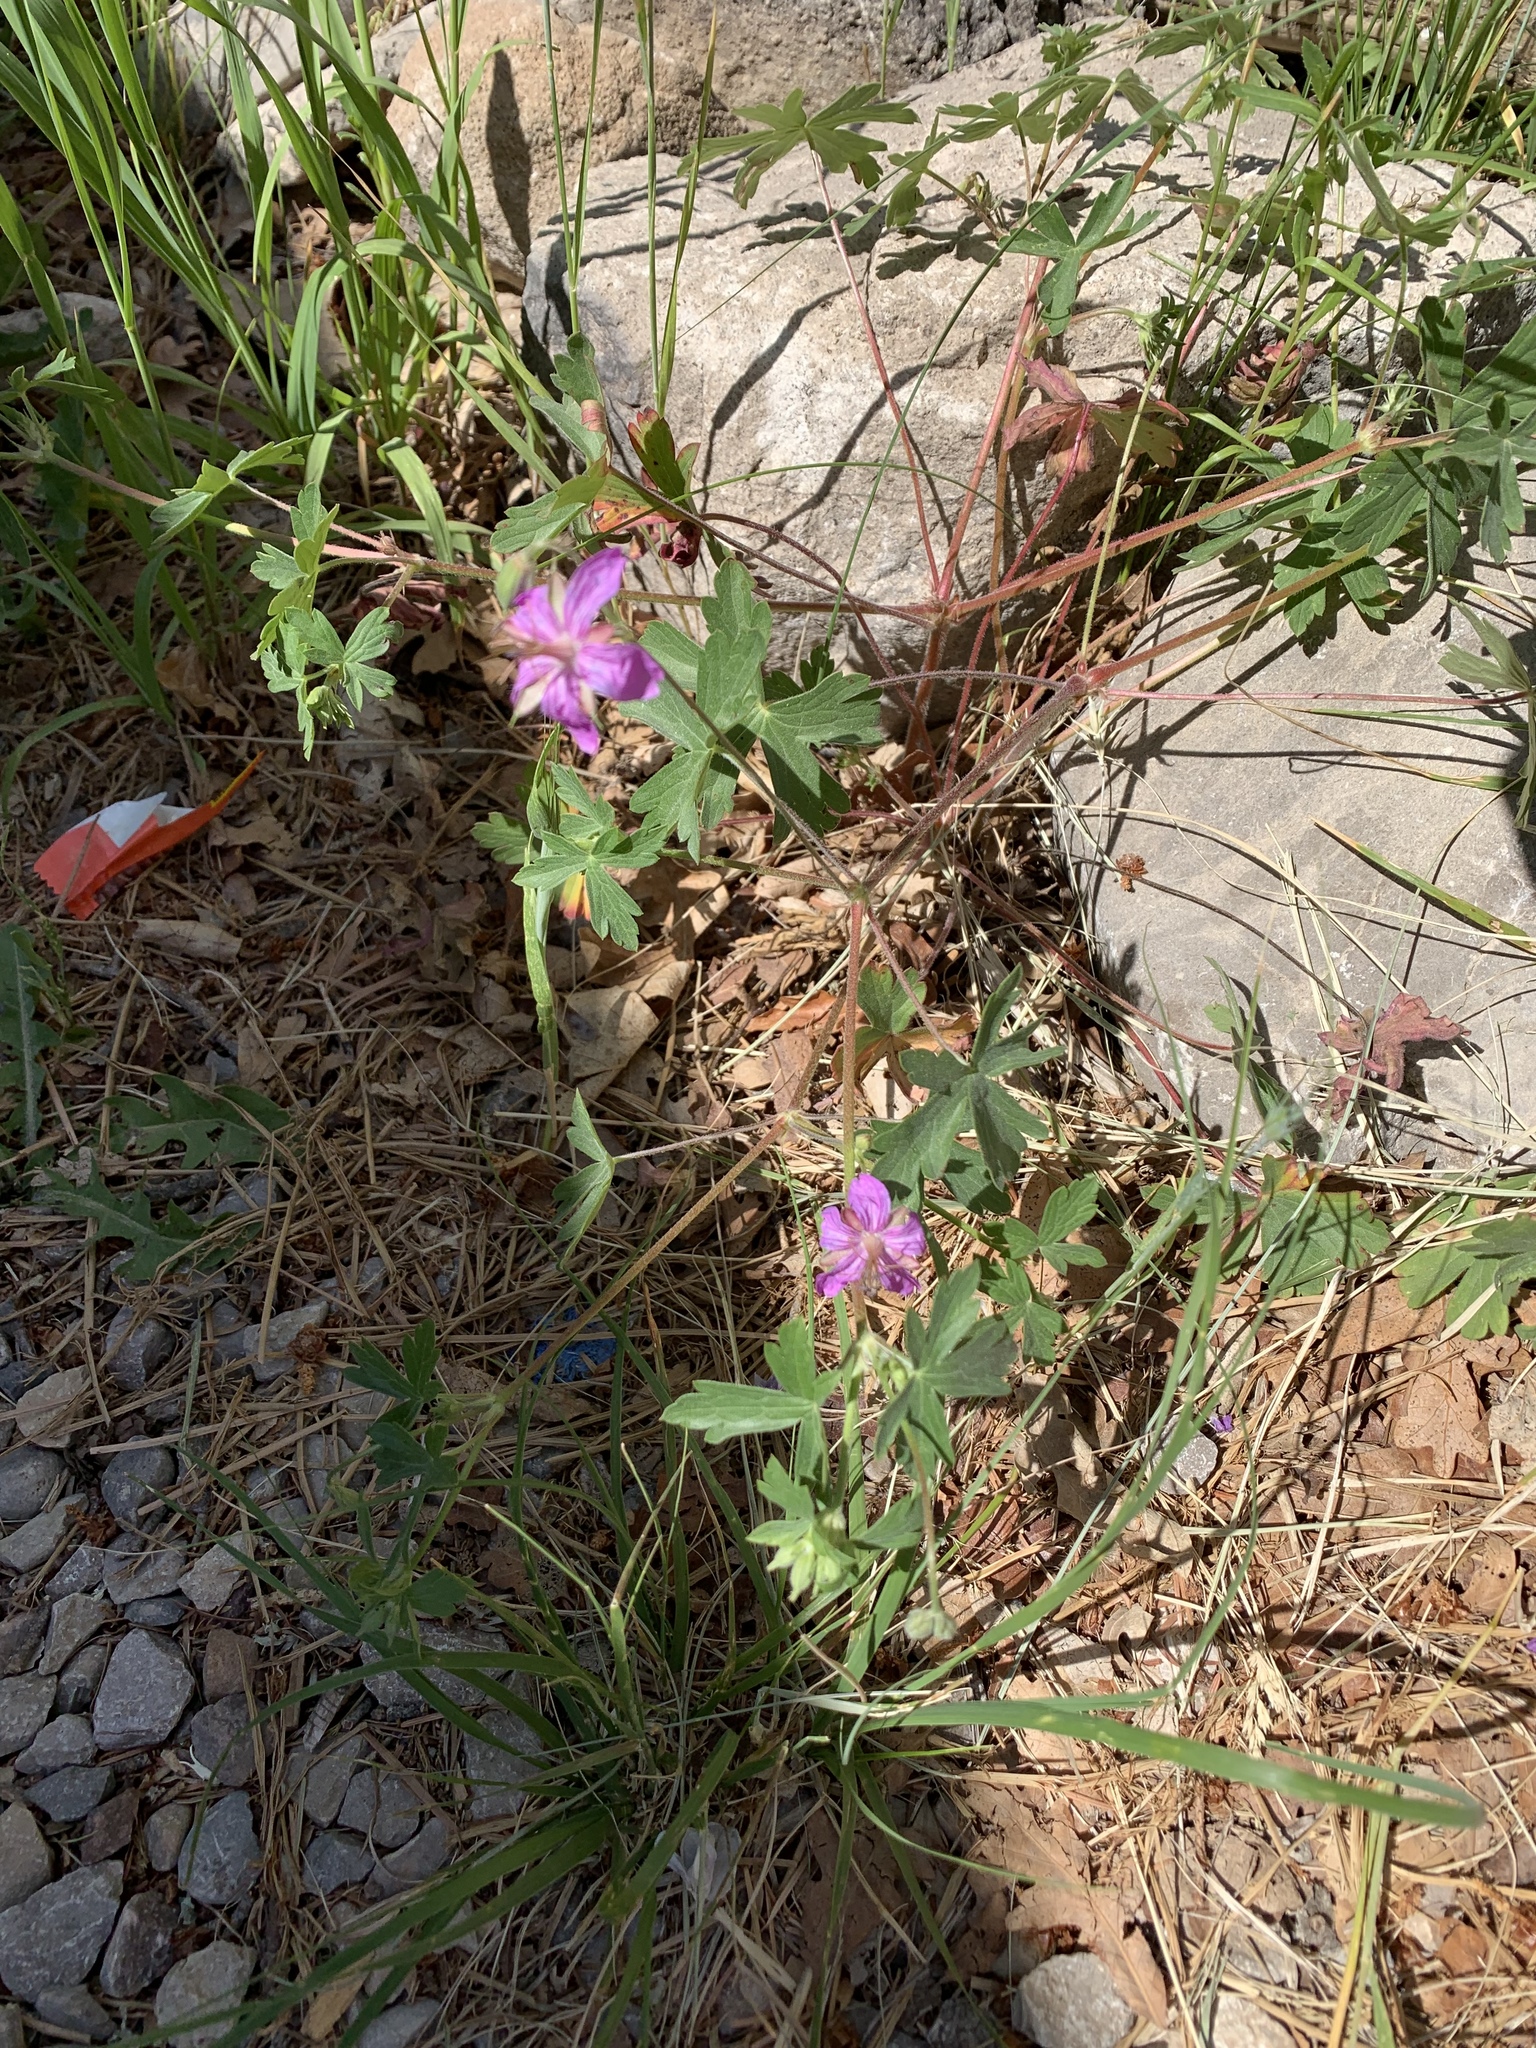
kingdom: Plantae
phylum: Tracheophyta
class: Magnoliopsida
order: Geraniales
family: Geraniaceae
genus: Geranium
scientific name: Geranium caespitosum
